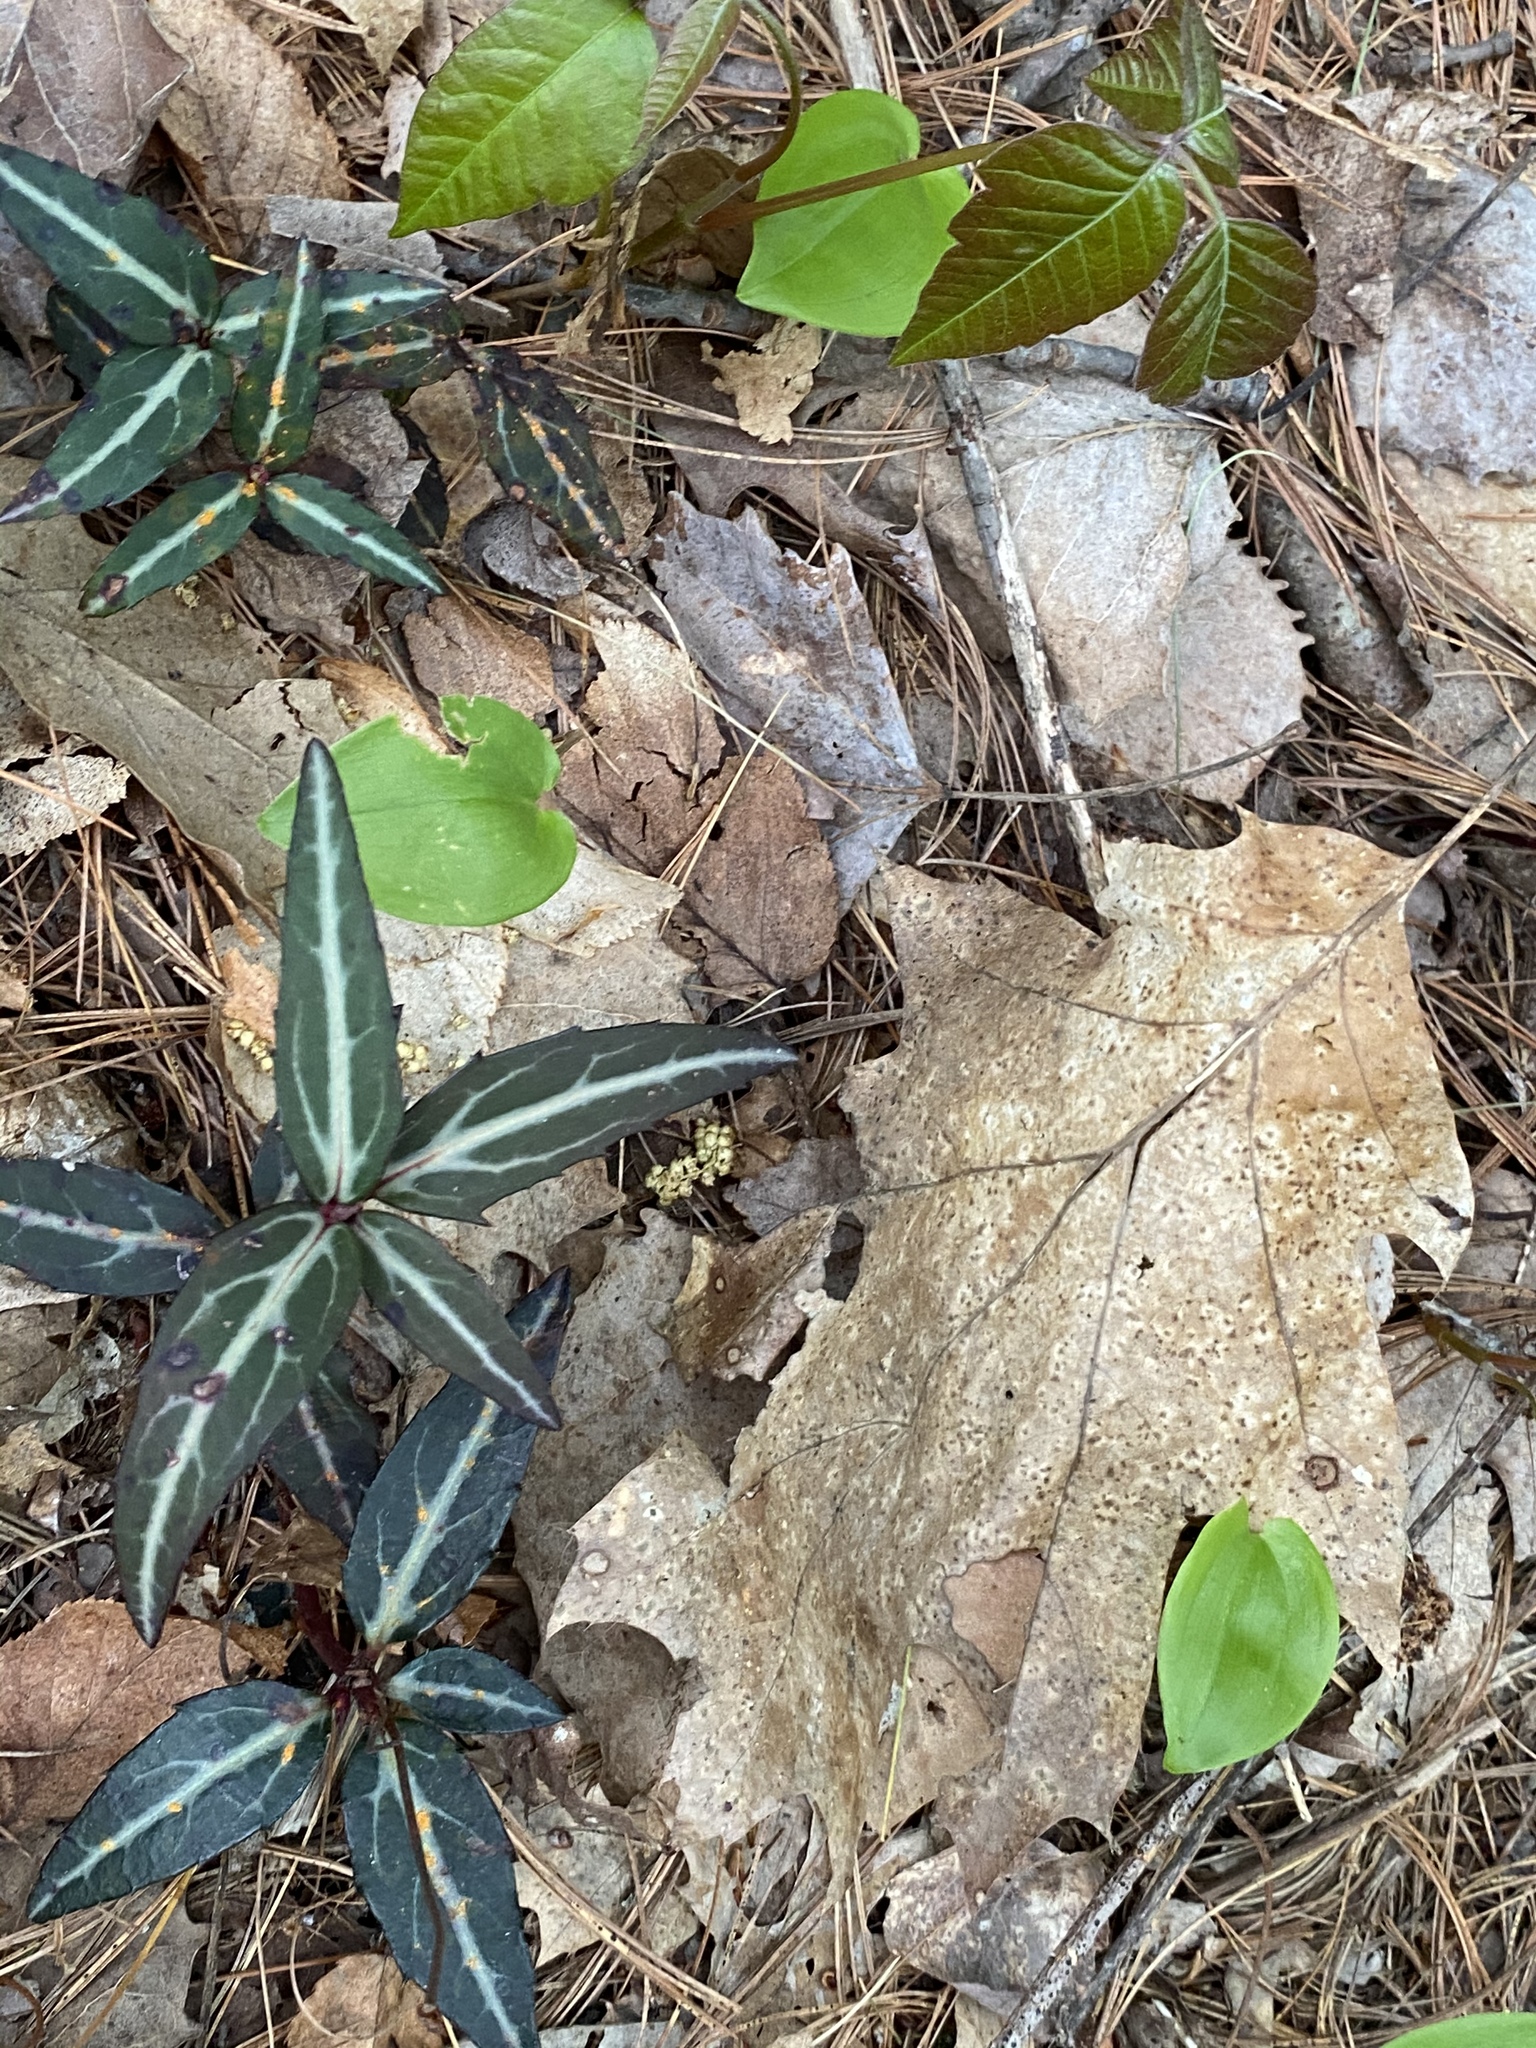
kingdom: Plantae
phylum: Tracheophyta
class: Magnoliopsida
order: Ericales
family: Ericaceae
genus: Chimaphila
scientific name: Chimaphila maculata
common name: Spotted pipsissewa
